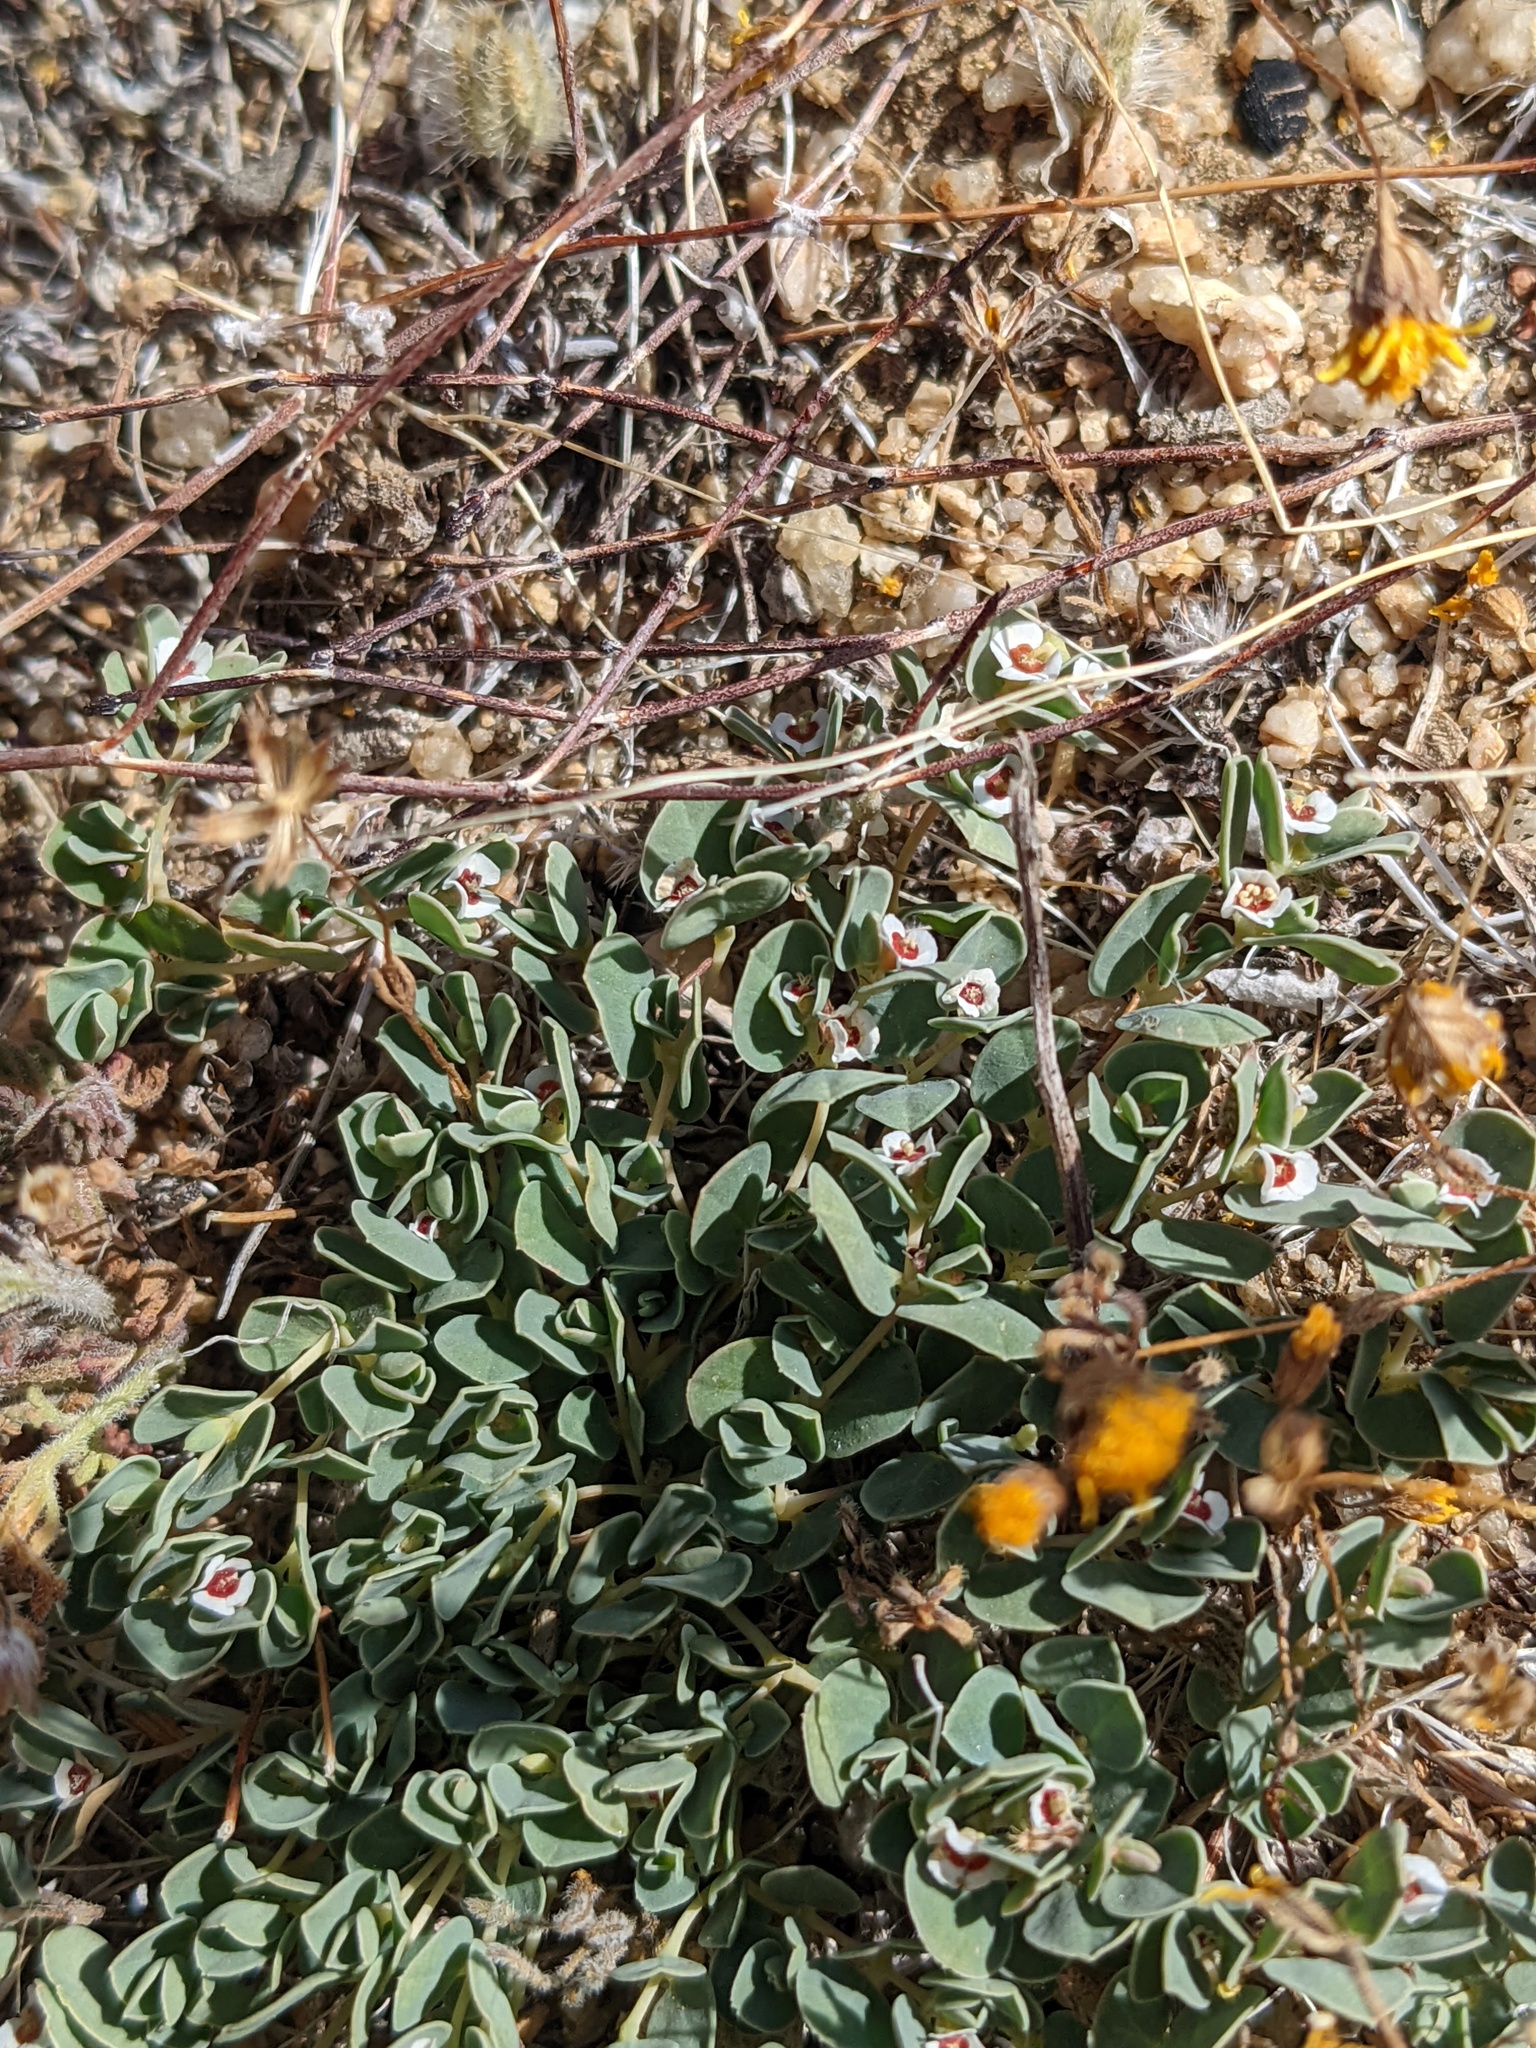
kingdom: Plantae
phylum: Tracheophyta
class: Magnoliopsida
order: Malpighiales
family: Euphorbiaceae
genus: Euphorbia
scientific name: Euphorbia albomarginata
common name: Whitemargin sandmat
